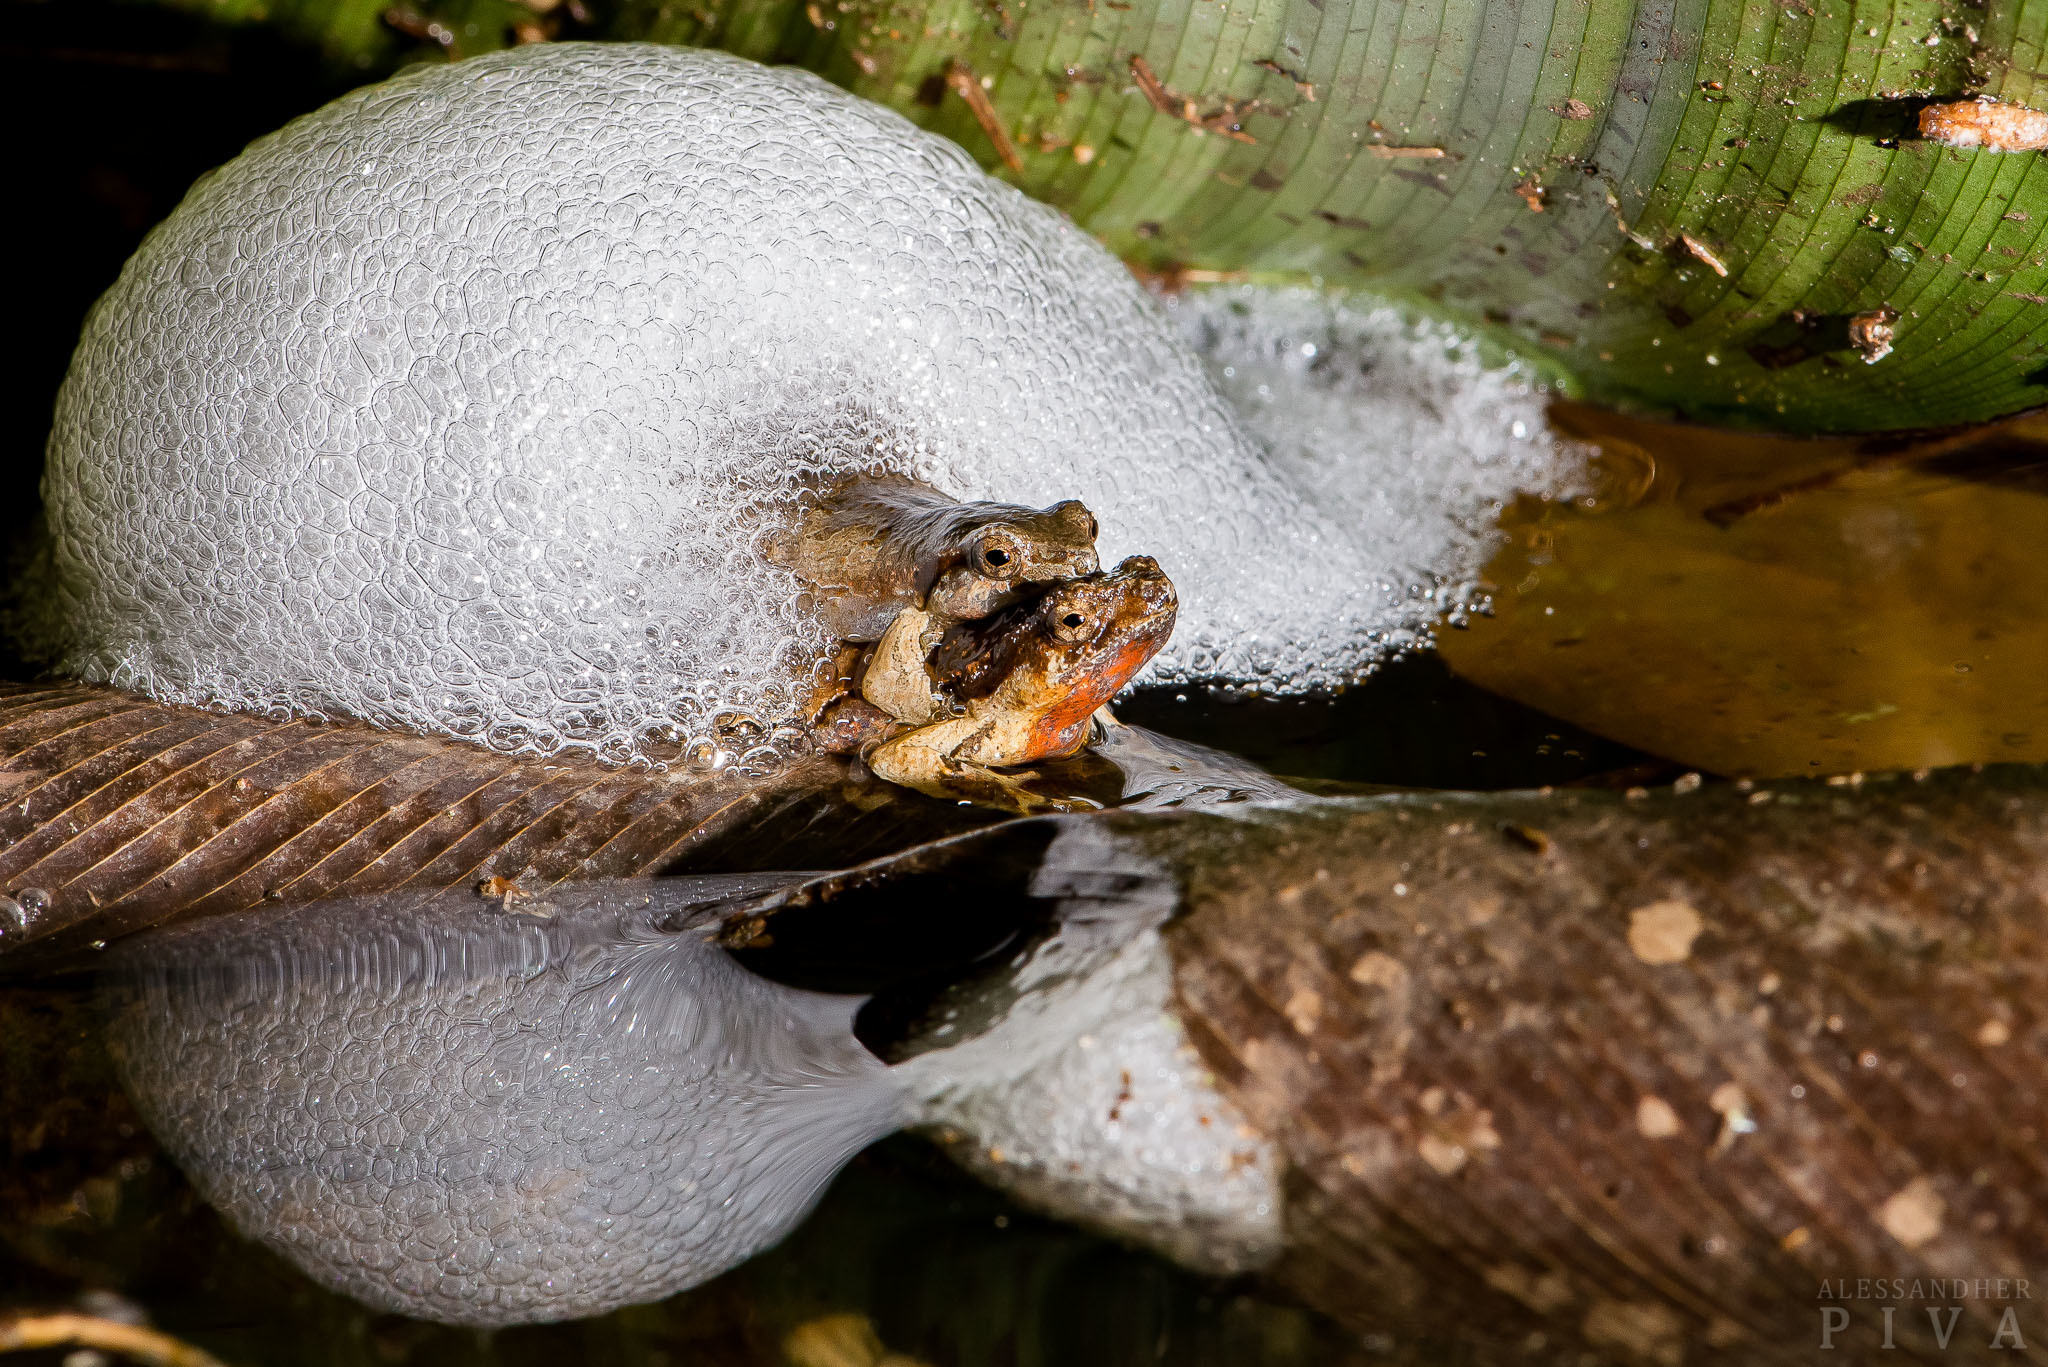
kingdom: Animalia
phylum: Chordata
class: Amphibia
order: Anura
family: Leptodactylidae
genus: Physalaemus
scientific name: Physalaemus nanus
